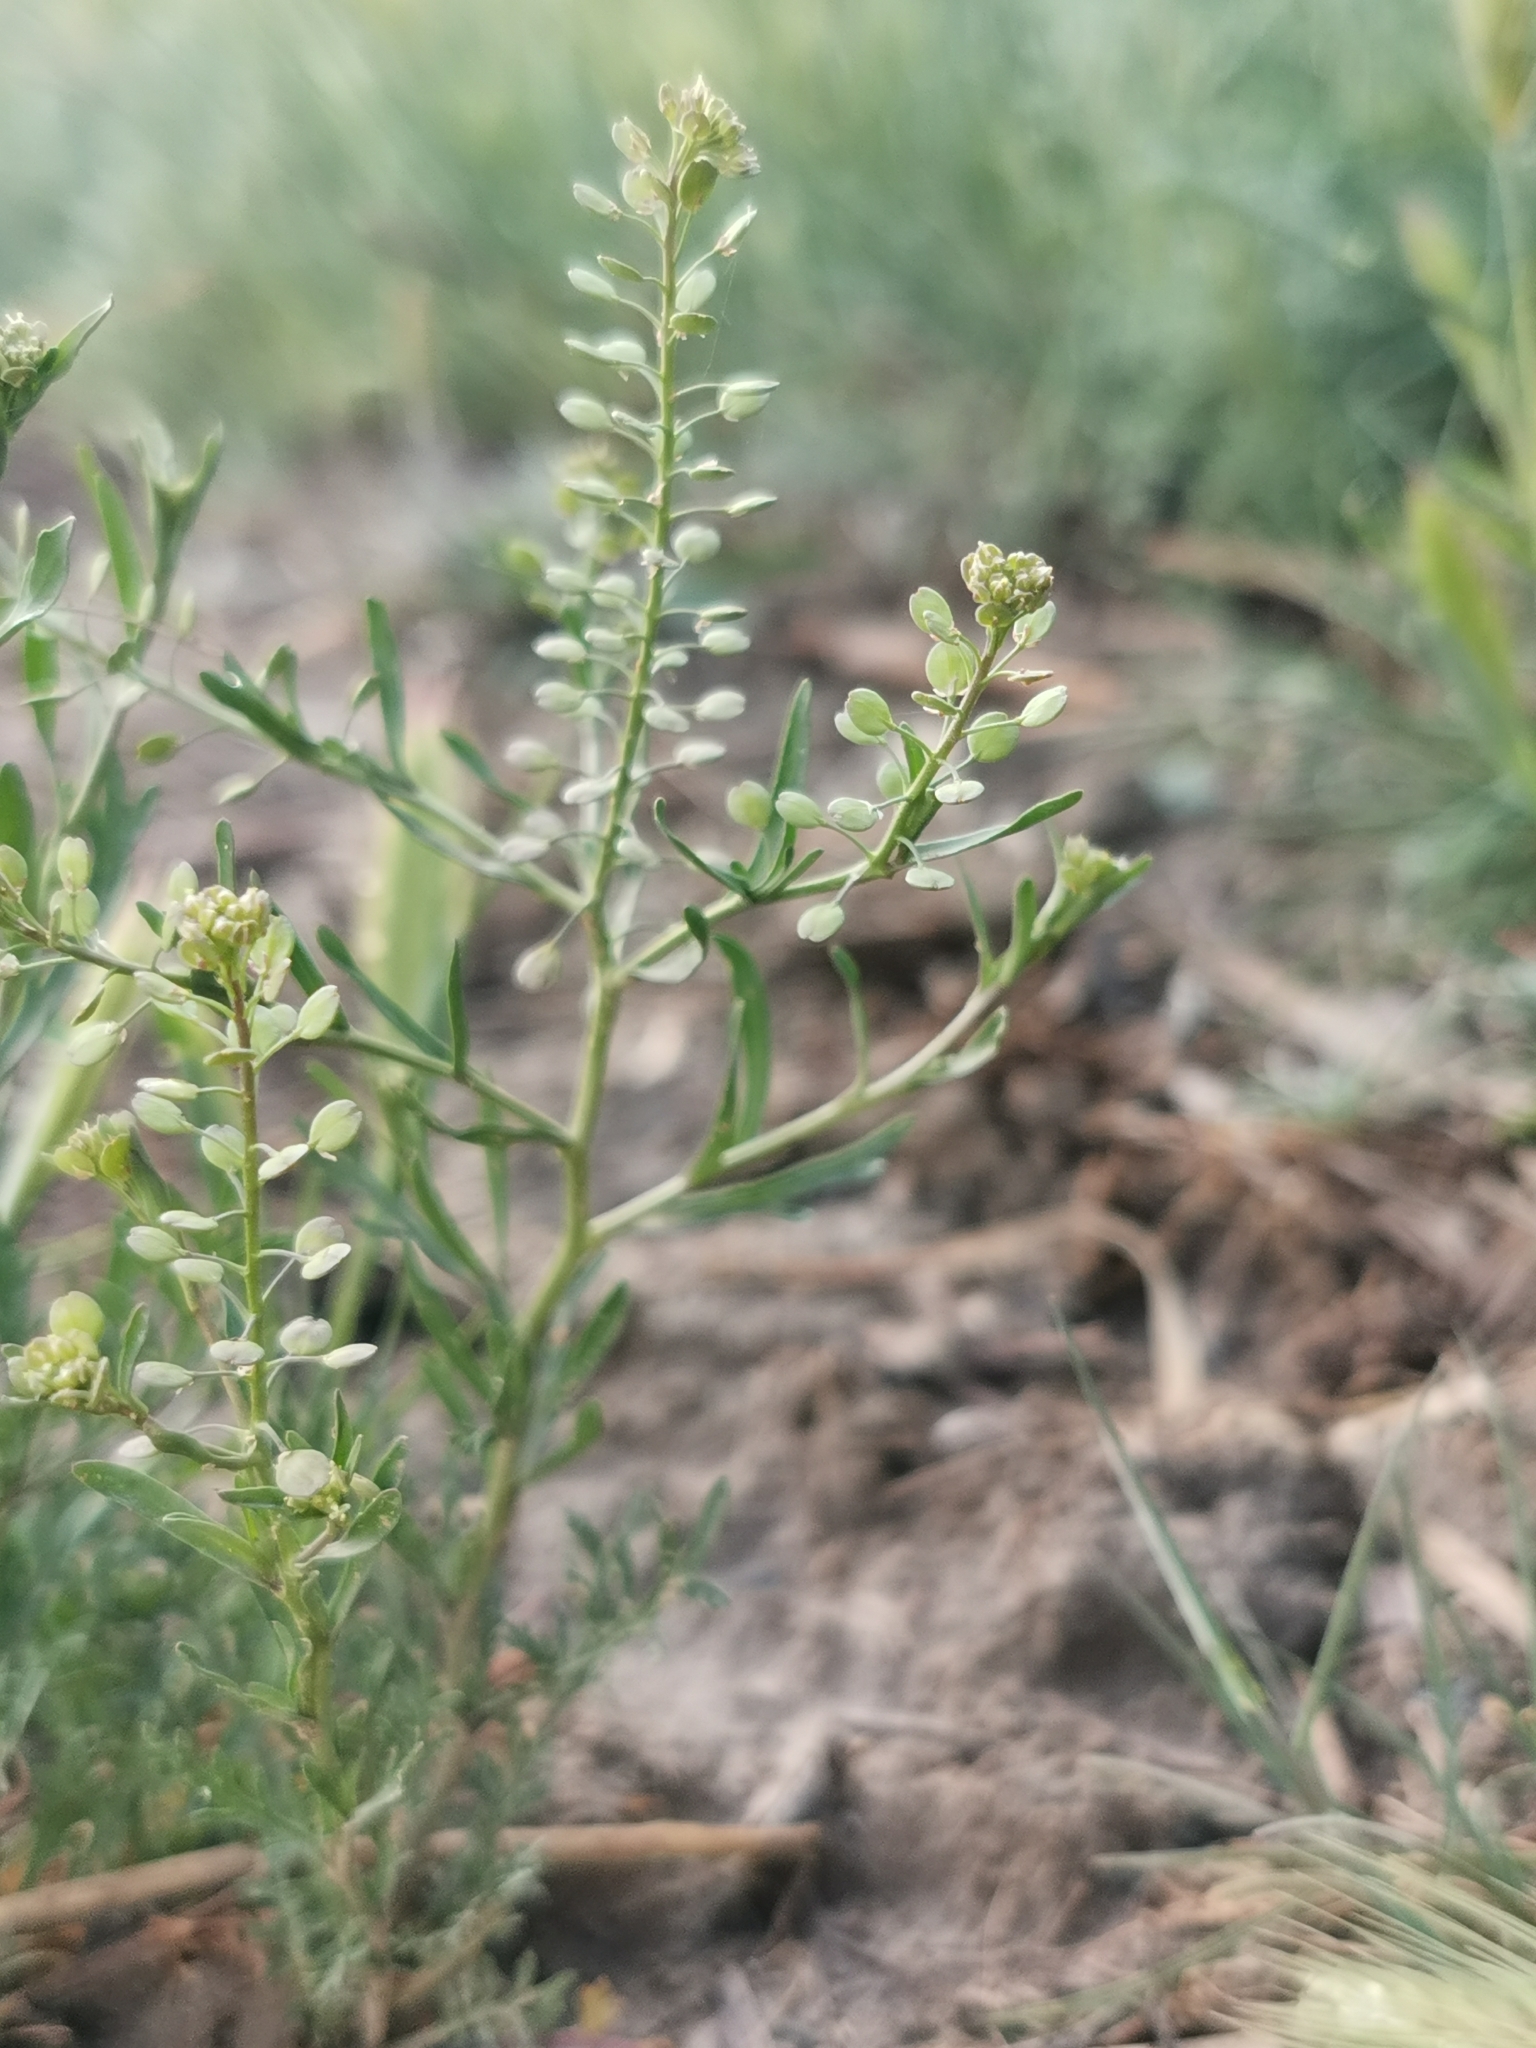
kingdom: Plantae
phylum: Tracheophyta
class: Magnoliopsida
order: Brassicales
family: Brassicaceae
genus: Lepidium
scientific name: Lepidium ruderale
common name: Narrow-leaved pepperwort
